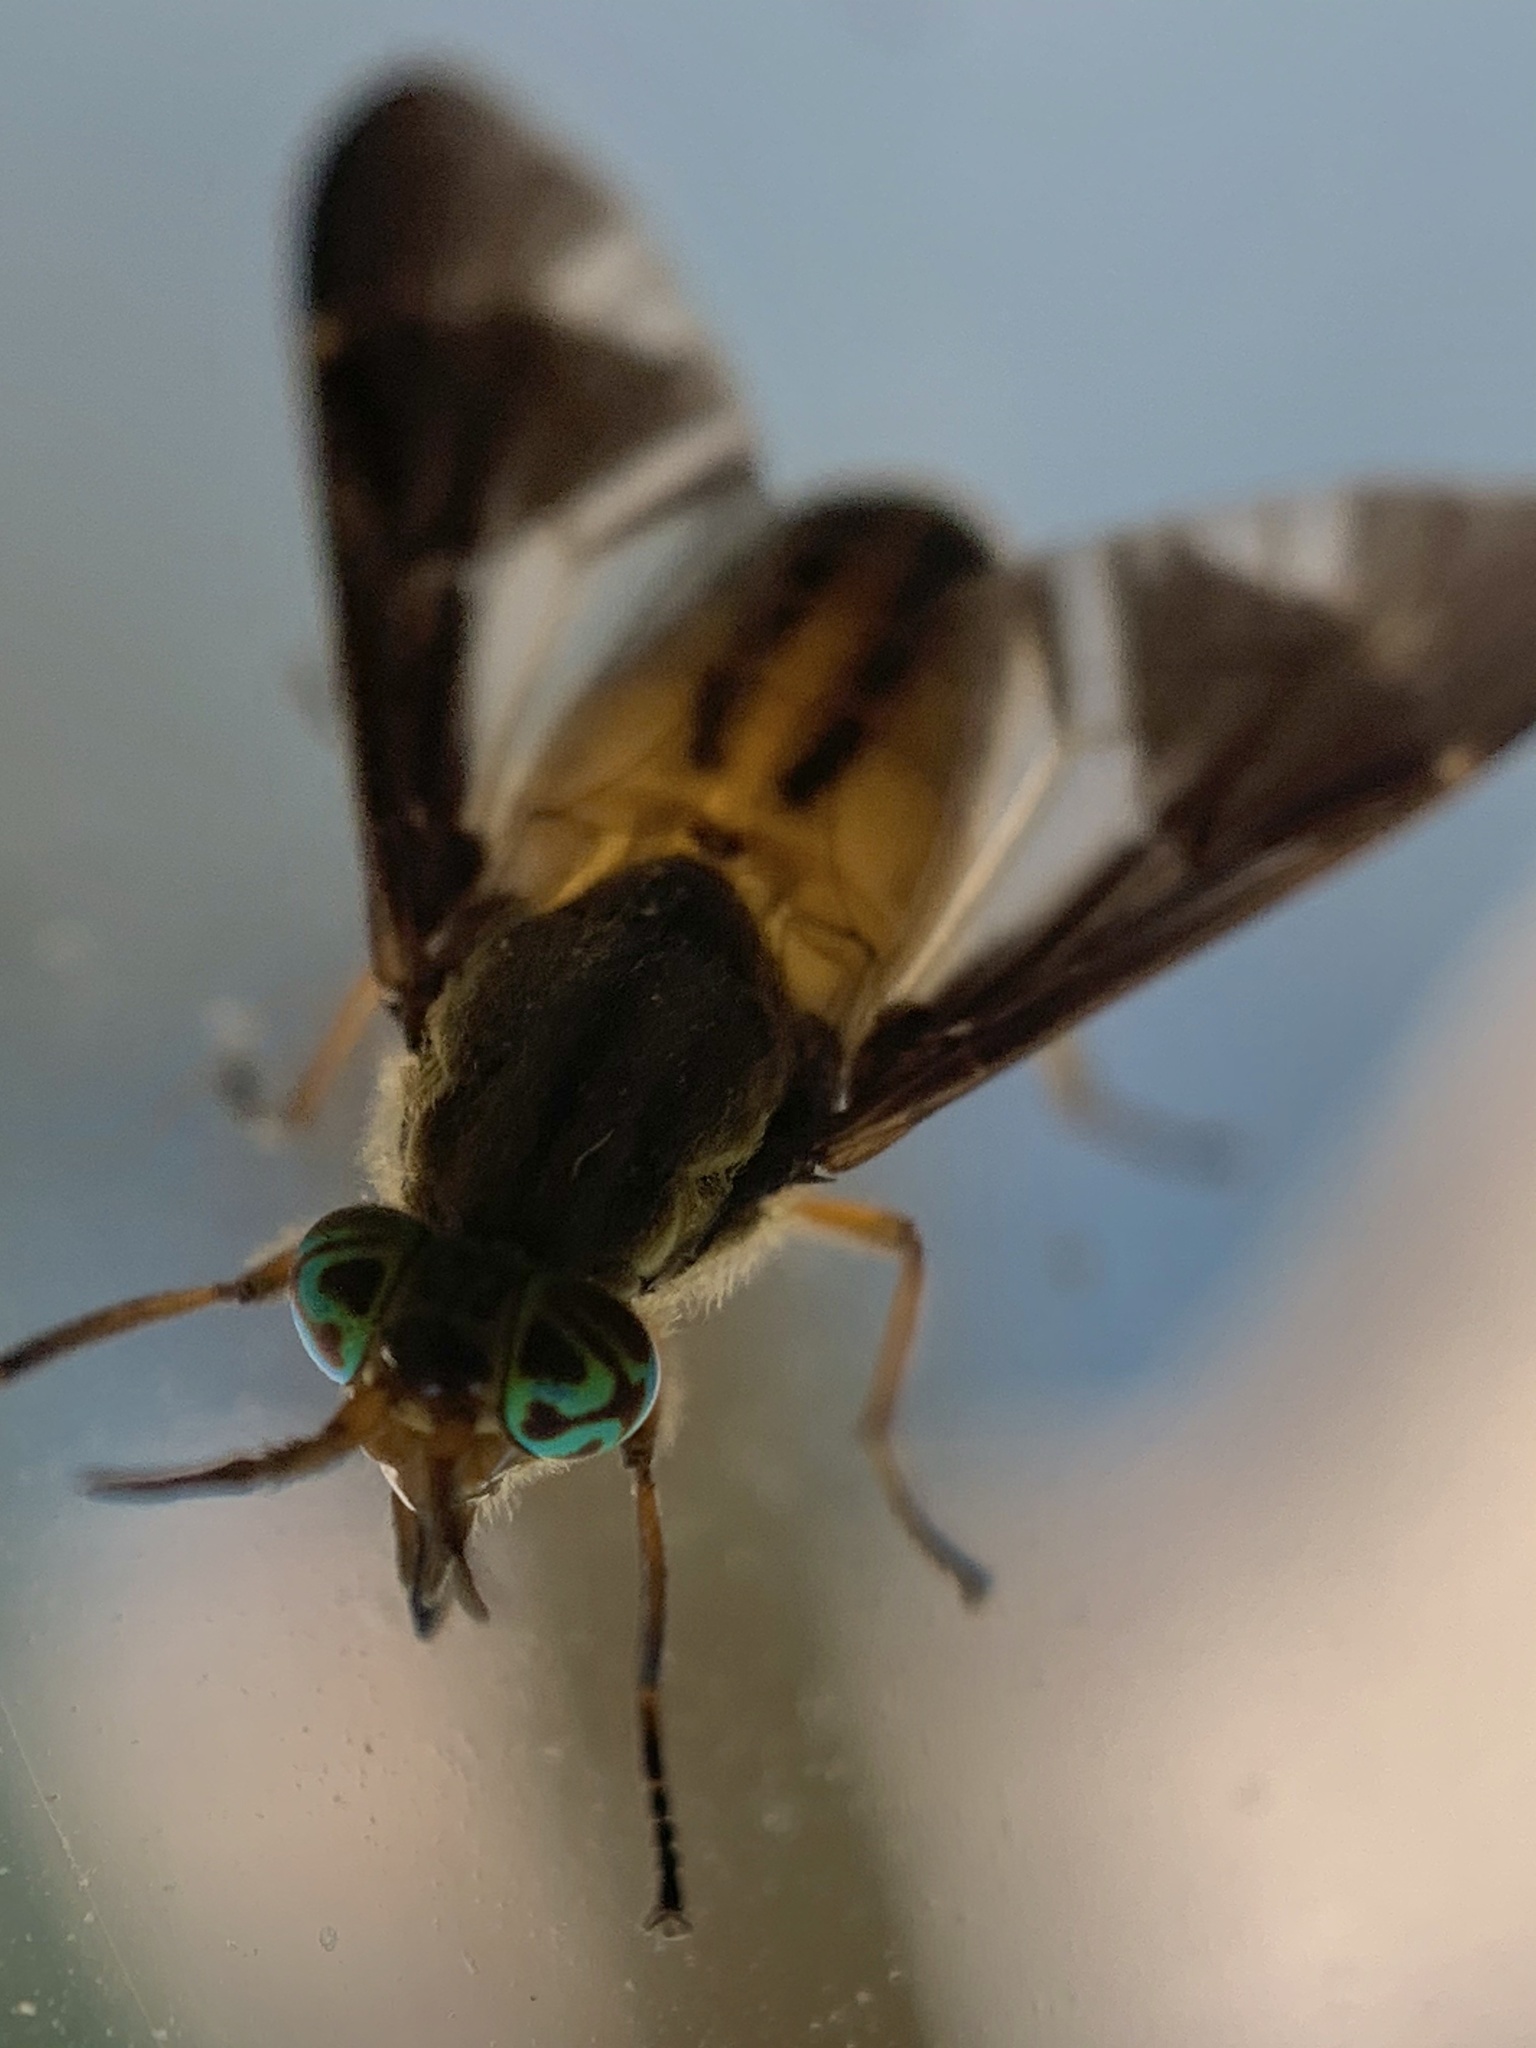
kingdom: Animalia
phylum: Arthropoda
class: Insecta
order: Diptera
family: Tabanidae
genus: Chrysops
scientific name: Chrysops vittatus
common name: Striped deer fly
